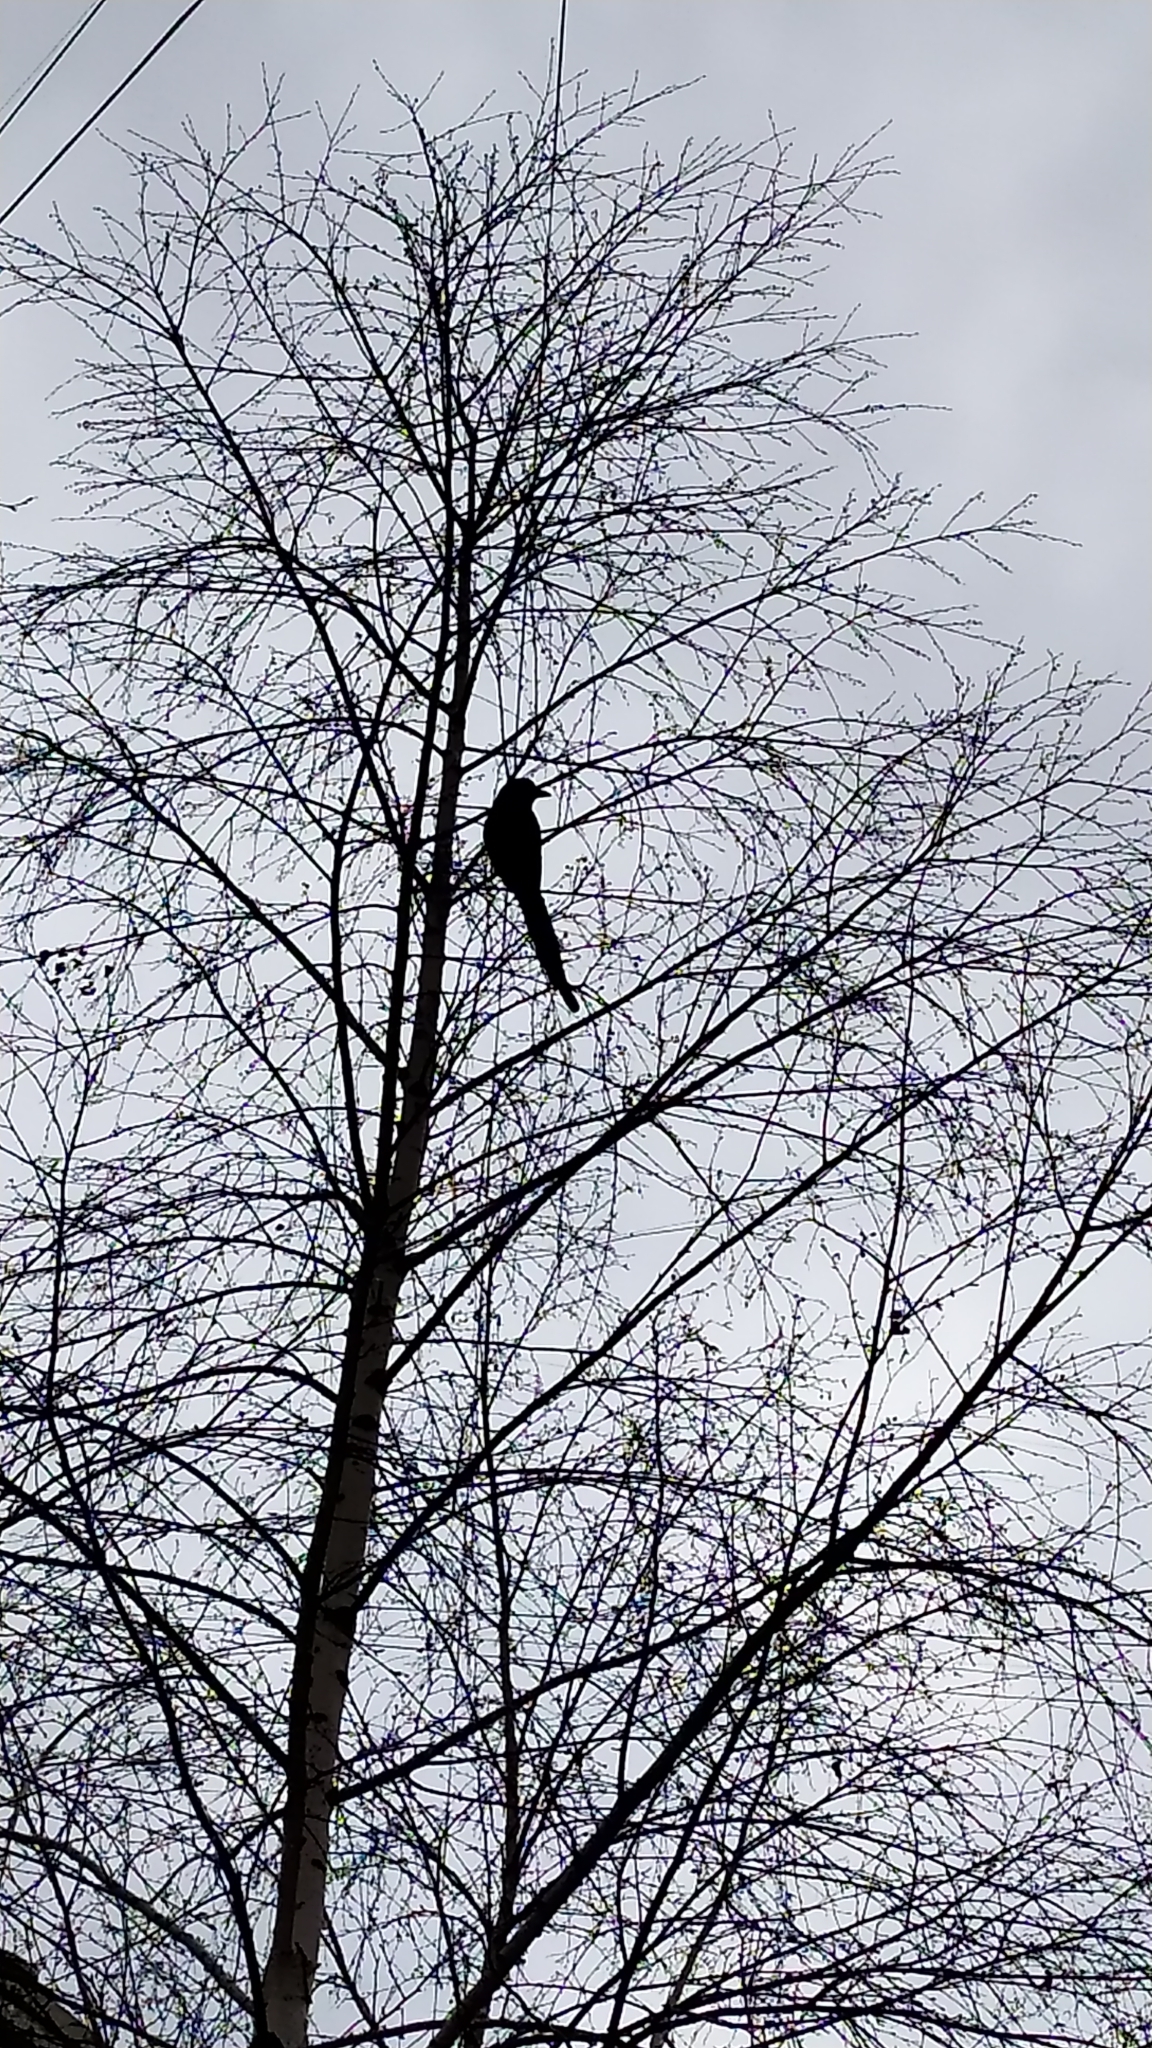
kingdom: Animalia
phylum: Chordata
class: Aves
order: Passeriformes
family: Corvidae
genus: Pica
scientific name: Pica pica
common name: Eurasian magpie
